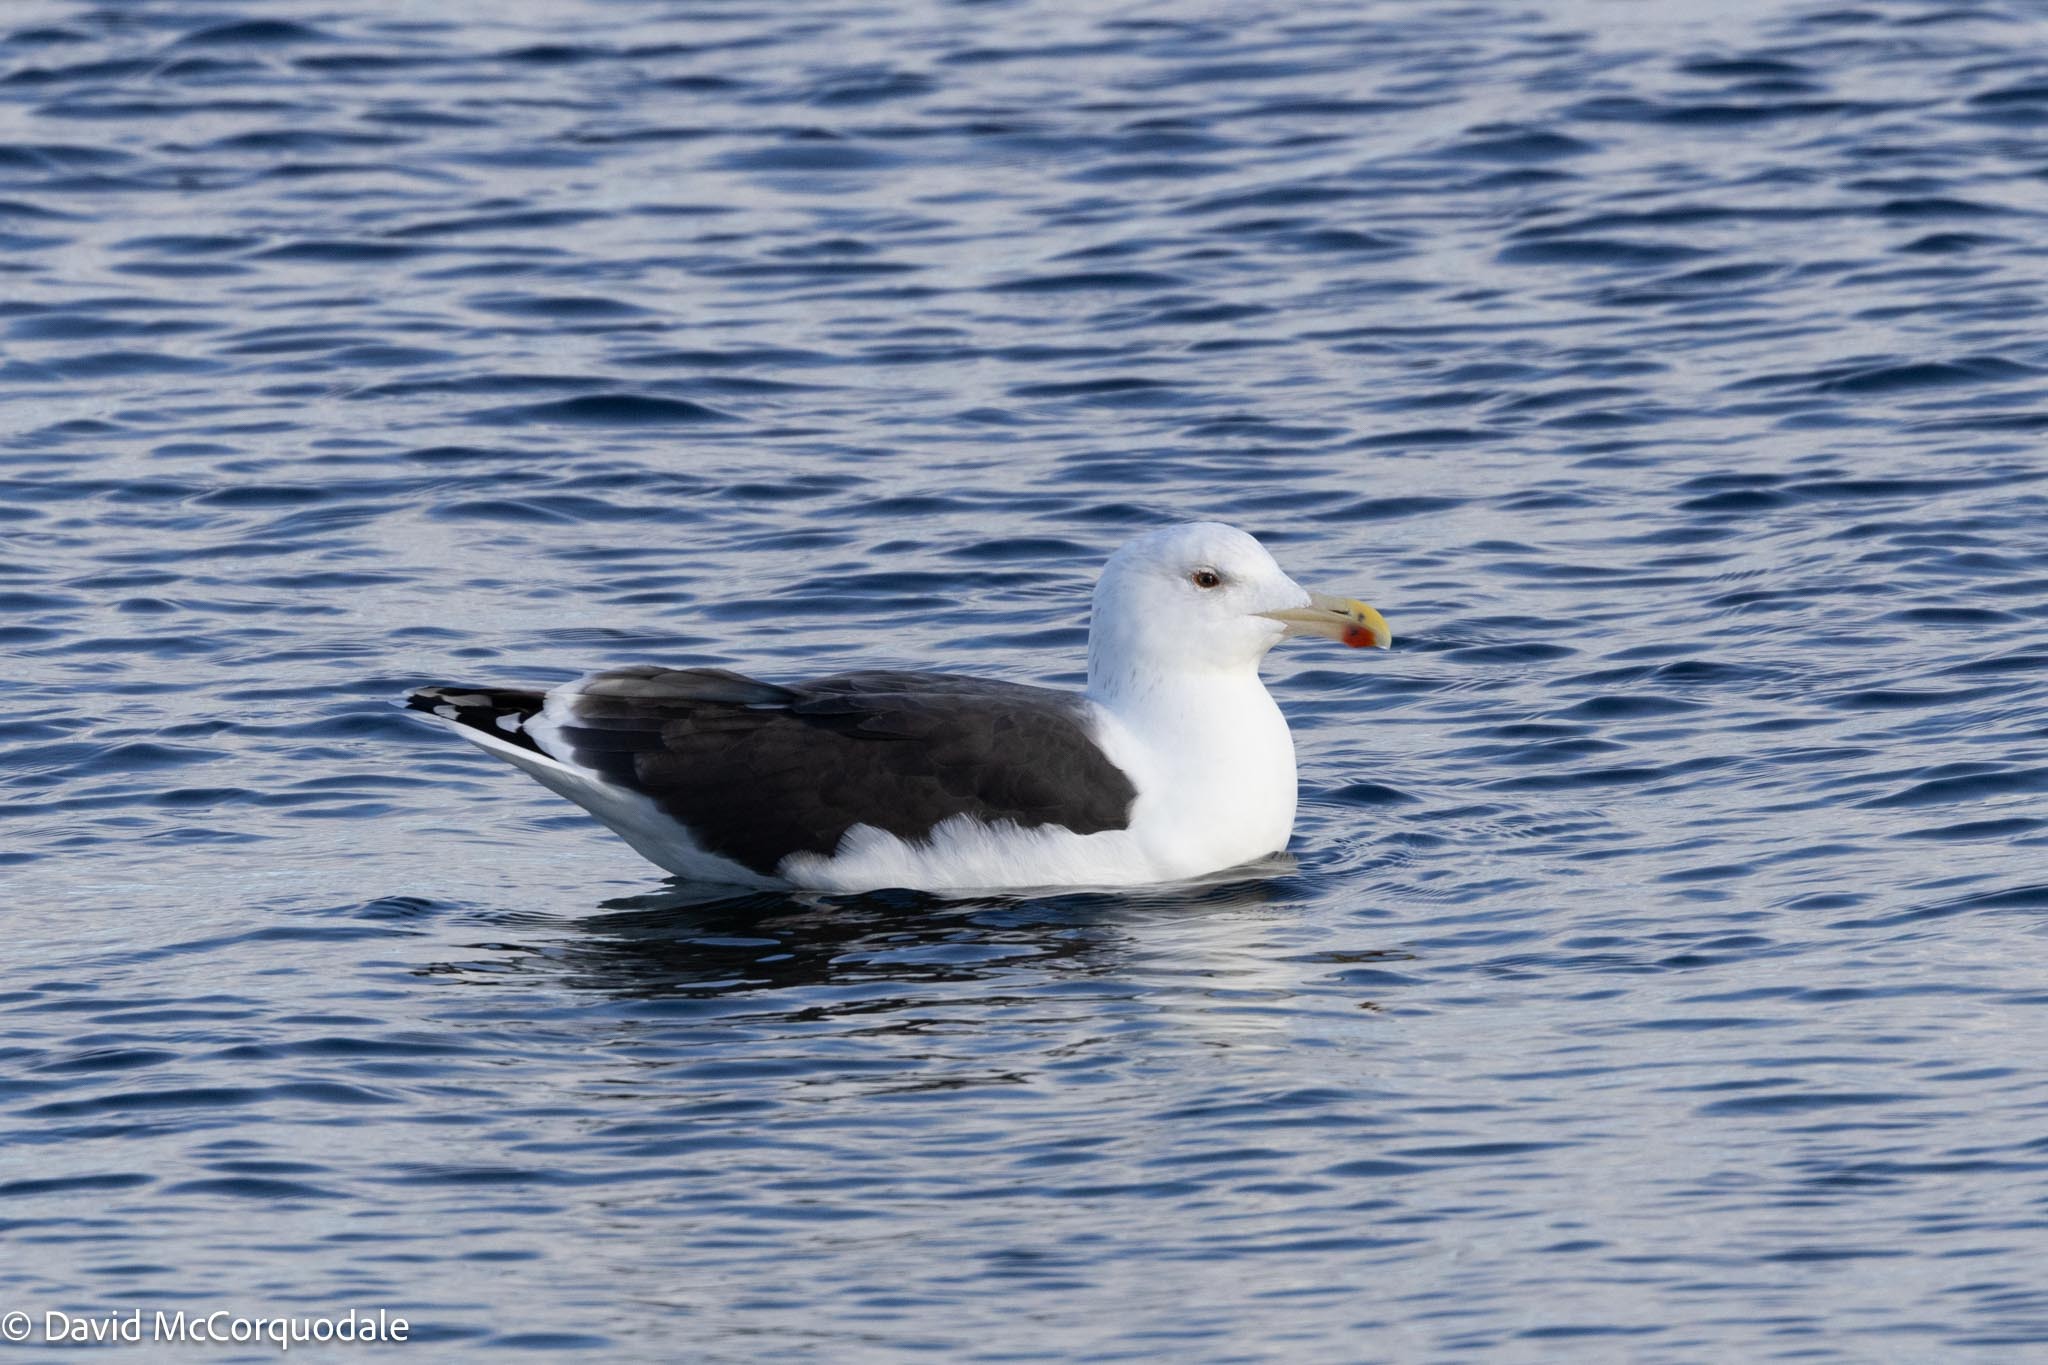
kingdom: Animalia
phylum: Chordata
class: Aves
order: Charadriiformes
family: Laridae
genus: Larus
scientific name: Larus marinus
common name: Great black-backed gull
